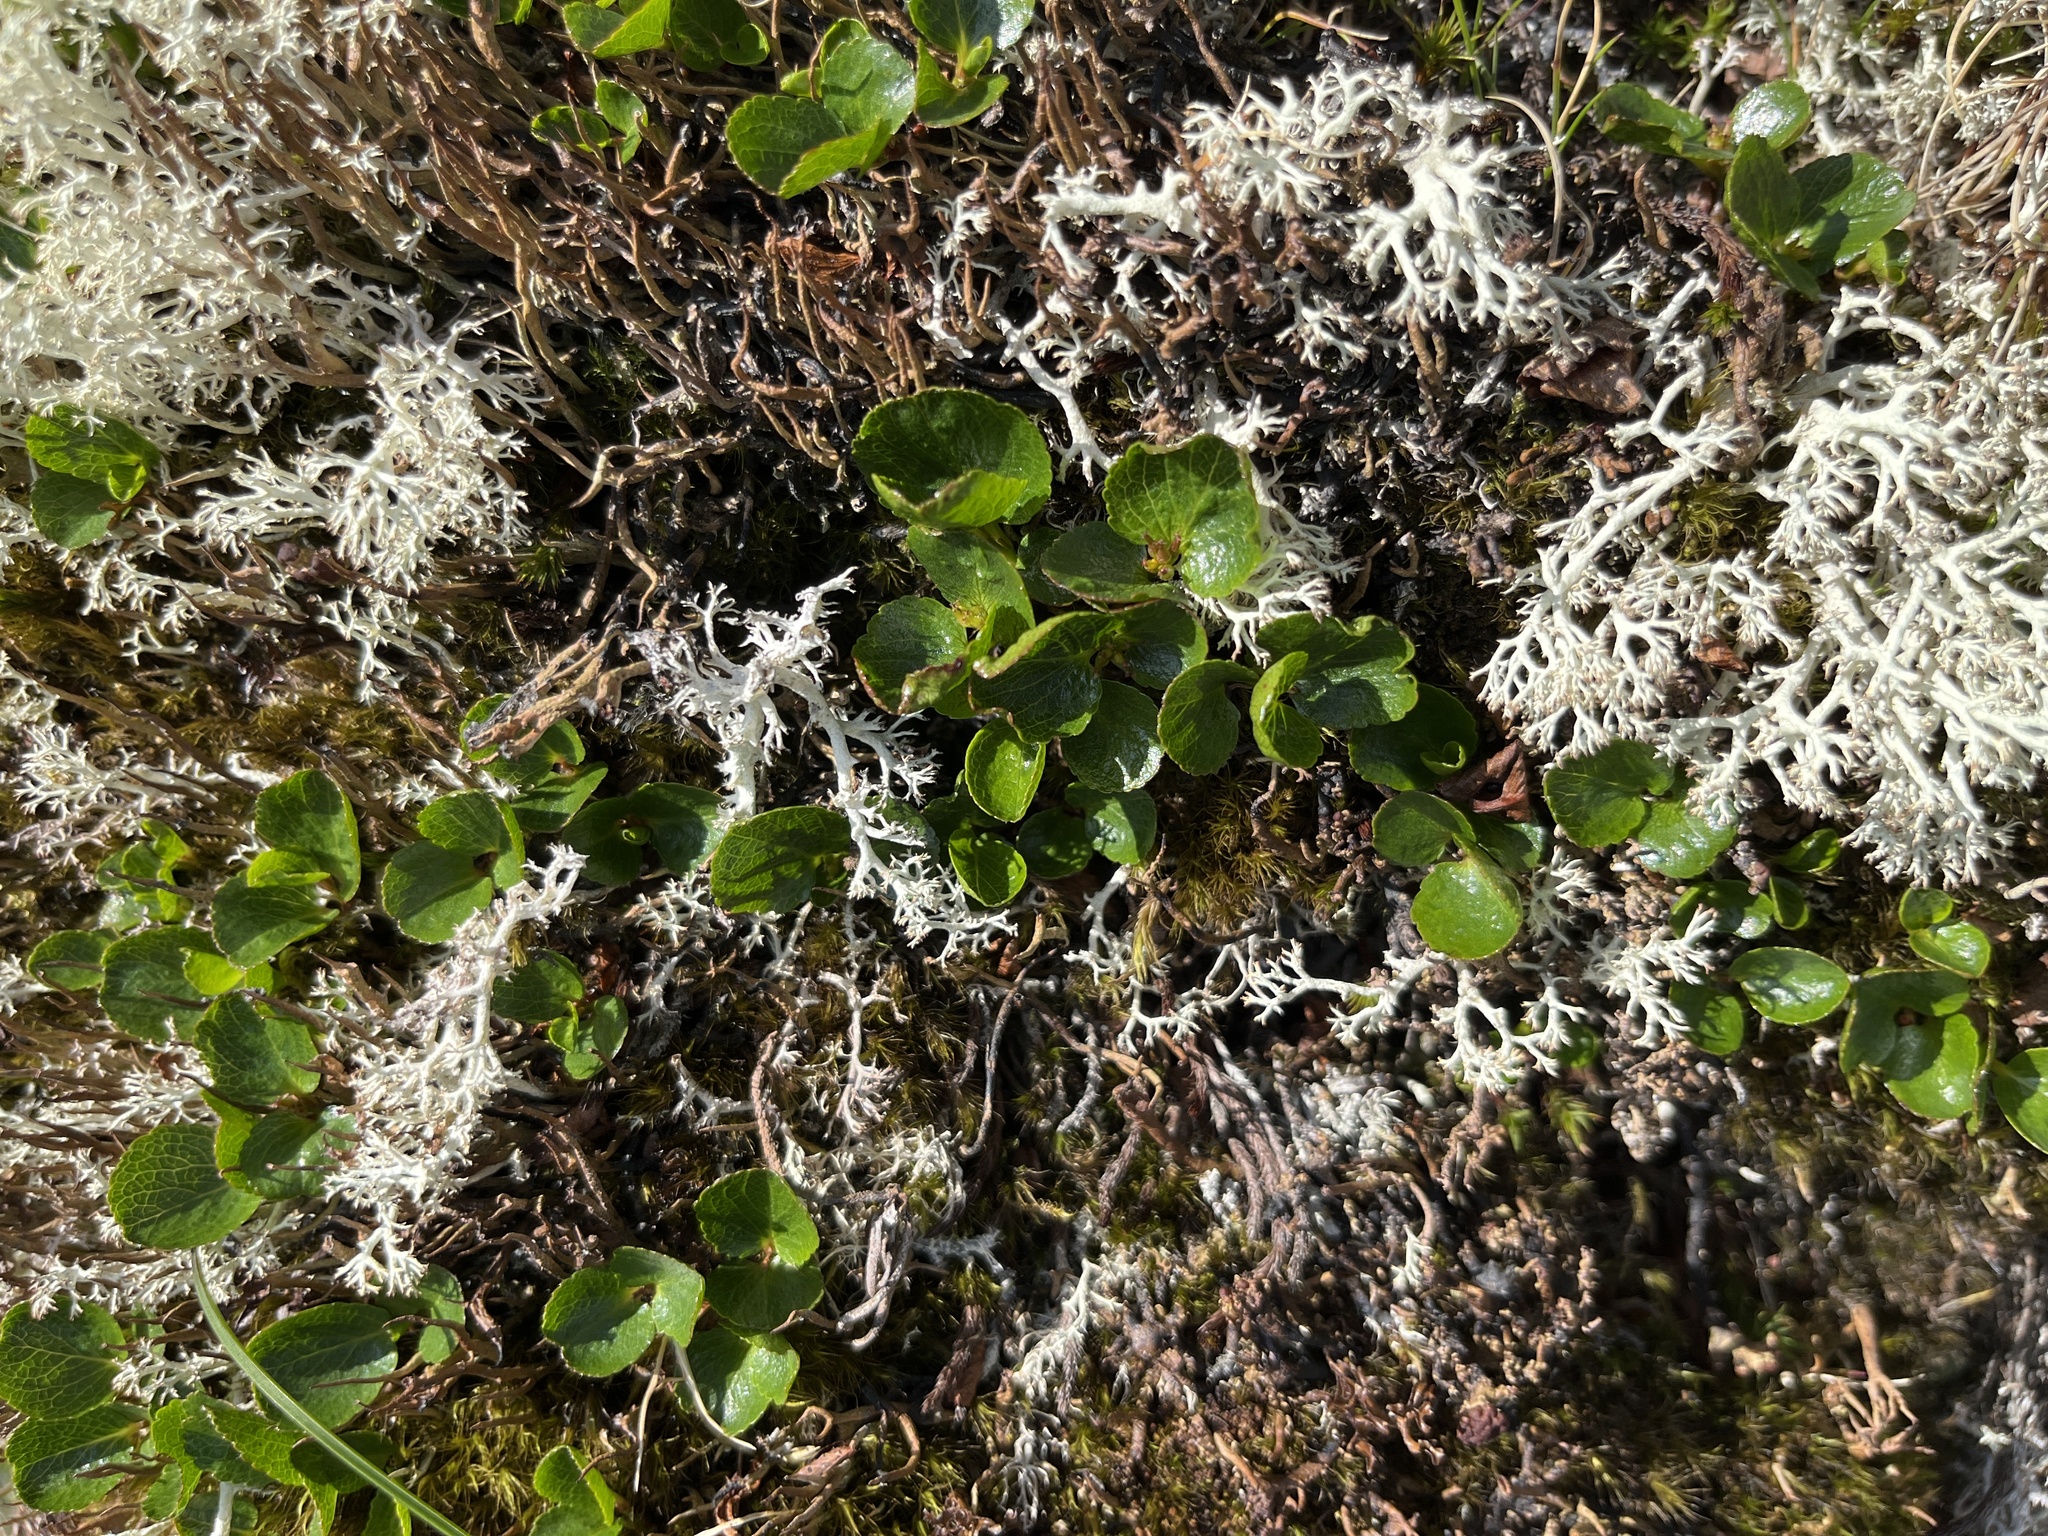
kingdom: Plantae
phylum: Tracheophyta
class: Magnoliopsida
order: Malpighiales
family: Salicaceae
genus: Salix
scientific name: Salix herbacea
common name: Dwarf willow
